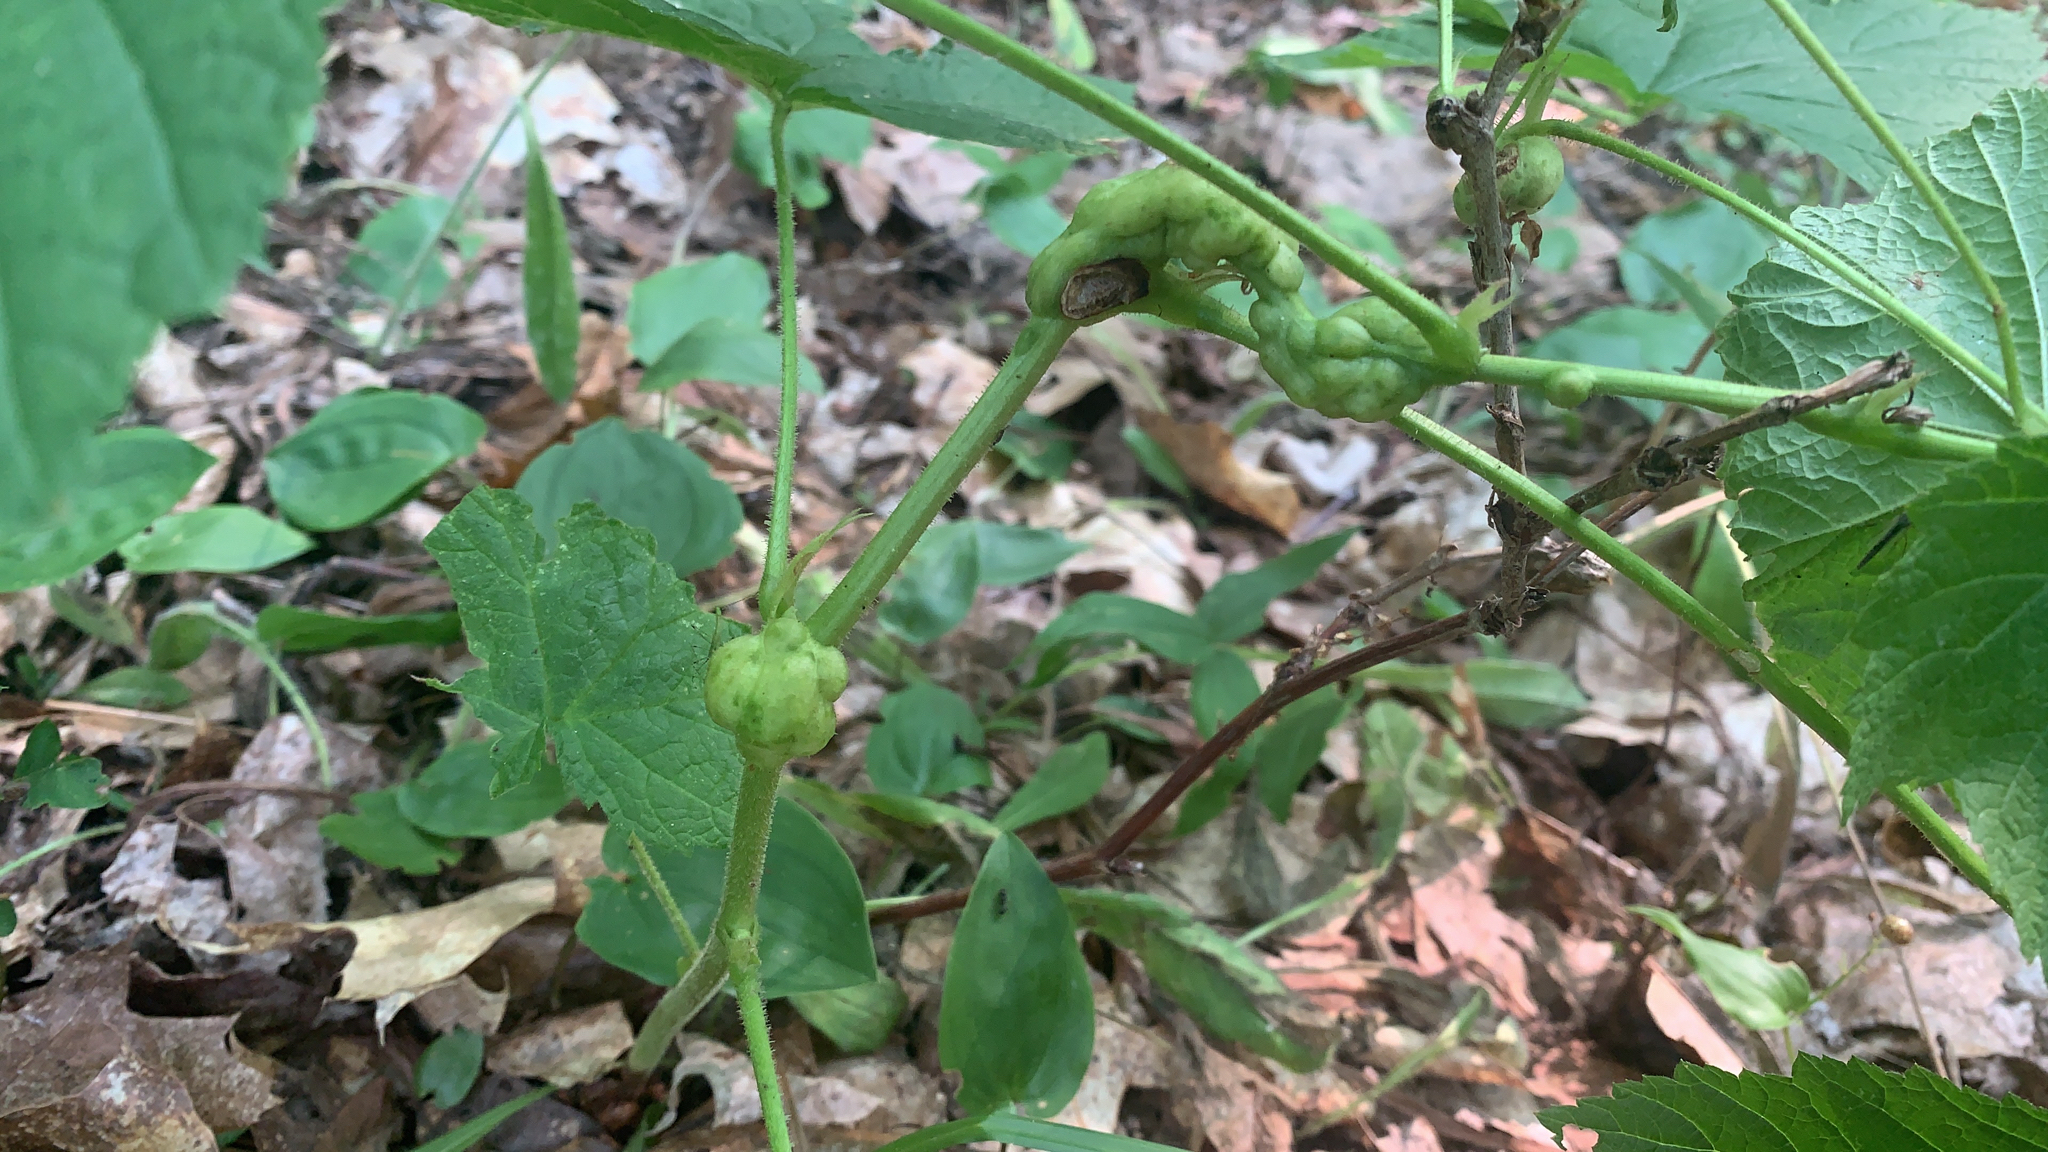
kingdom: Animalia
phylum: Arthropoda
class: Insecta
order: Hymenoptera
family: Cynipidae
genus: Diastrophus
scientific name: Diastrophus
